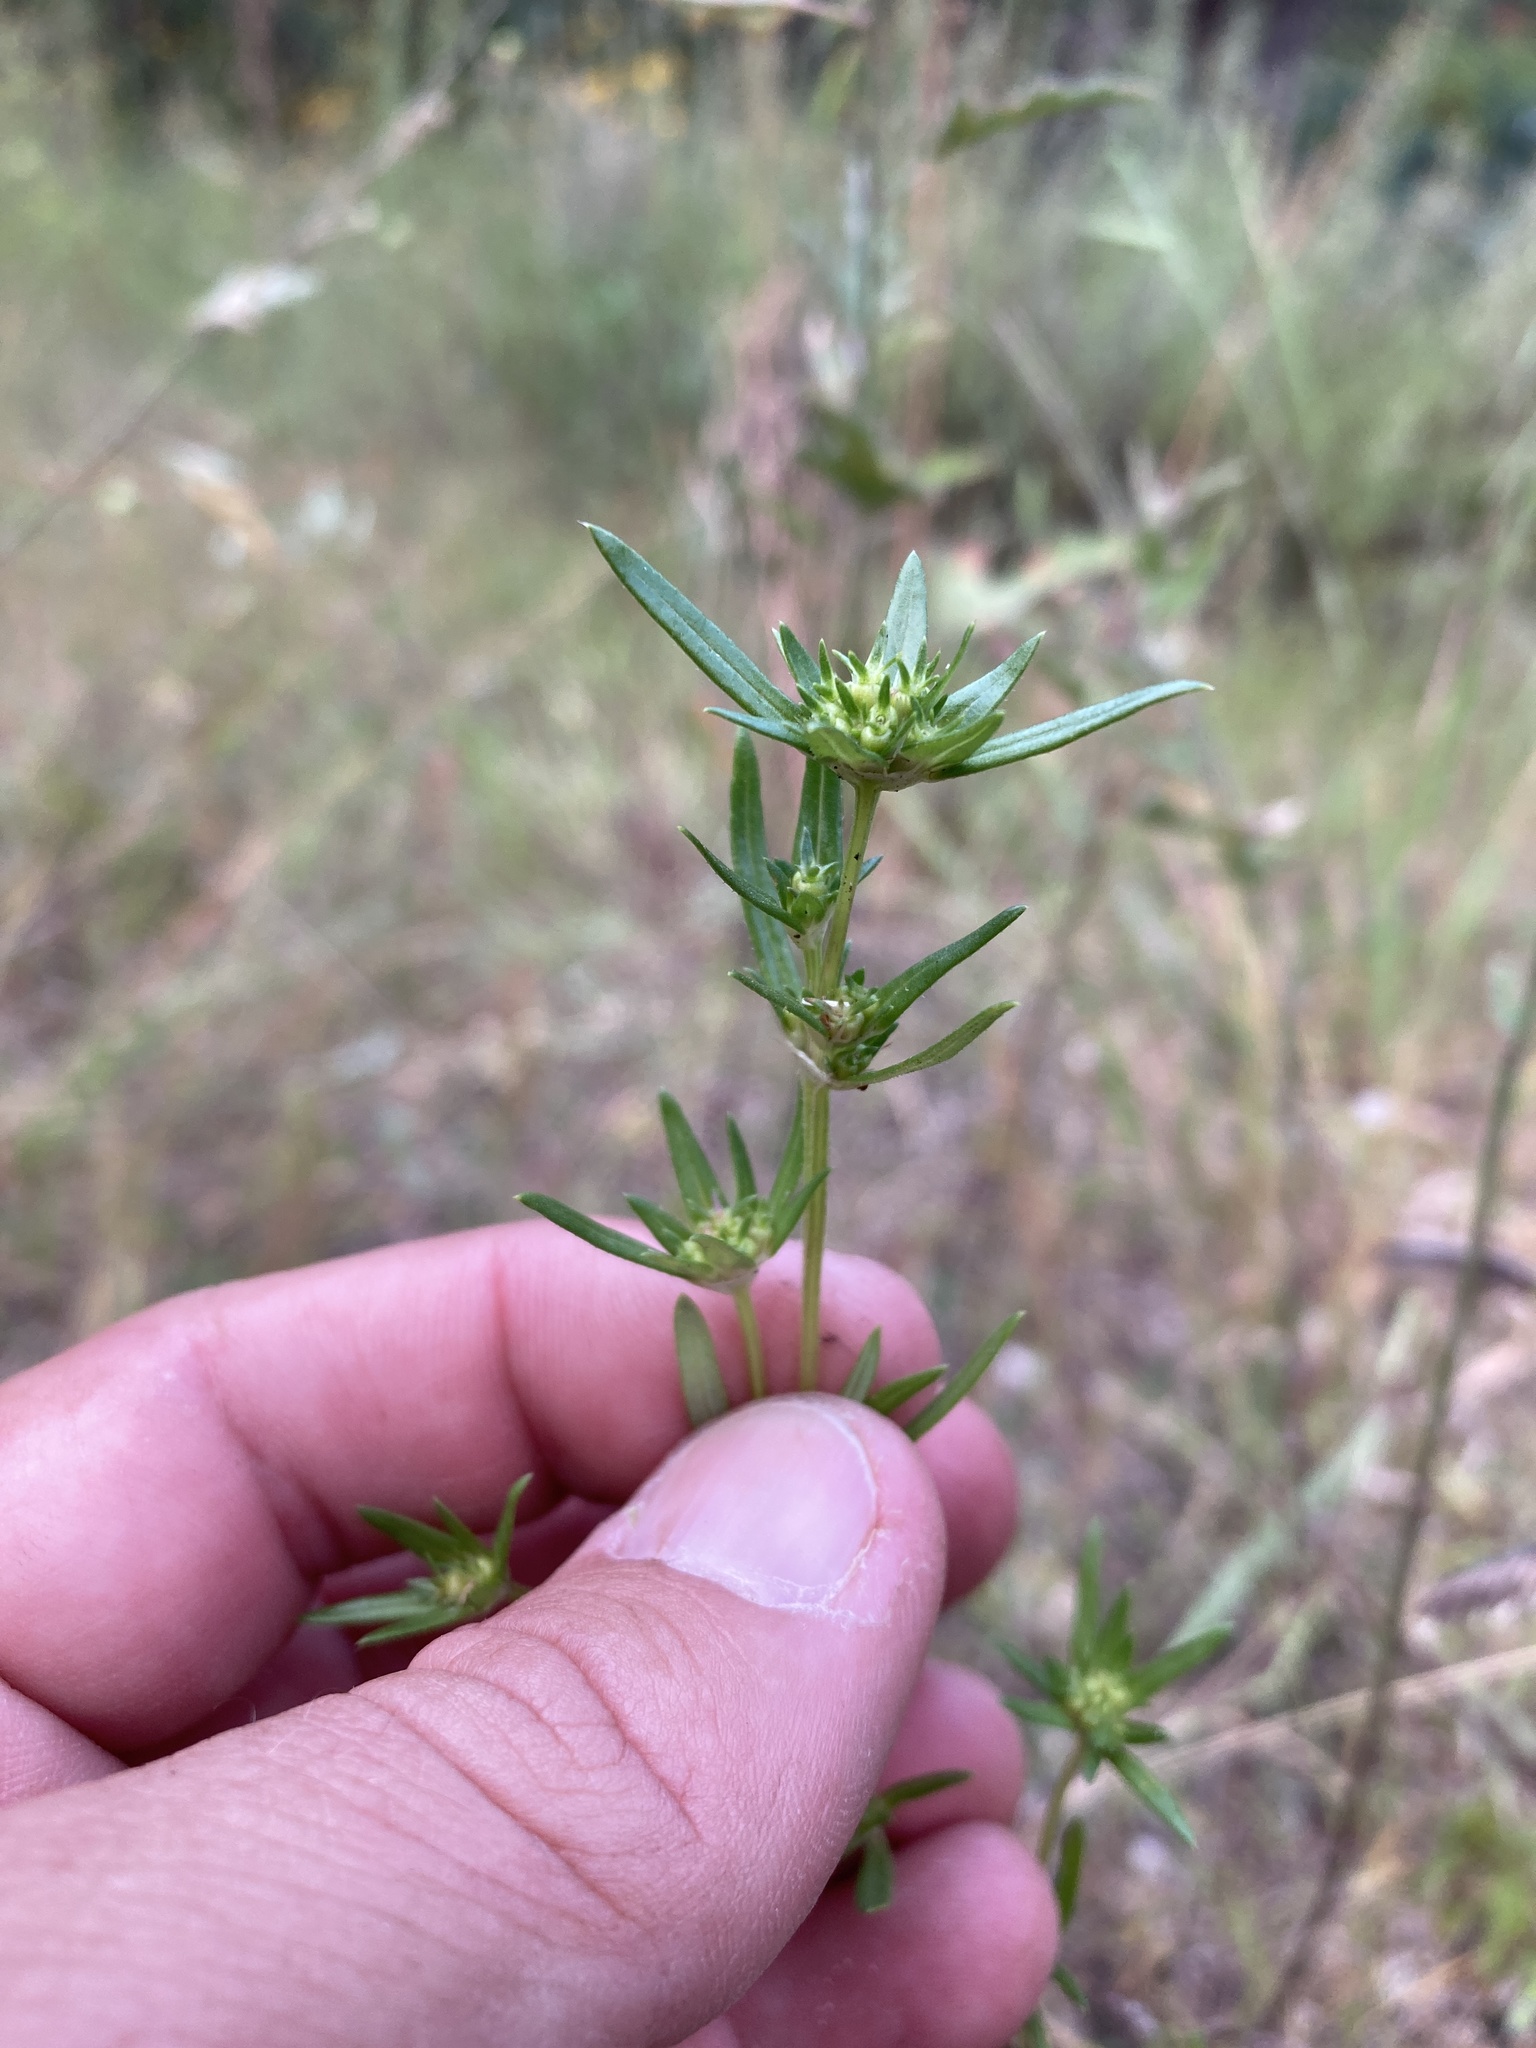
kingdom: Plantae
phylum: Tracheophyta
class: Magnoliopsida
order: Gentianales
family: Rubiaceae
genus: Crusea
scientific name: Crusea simplex
